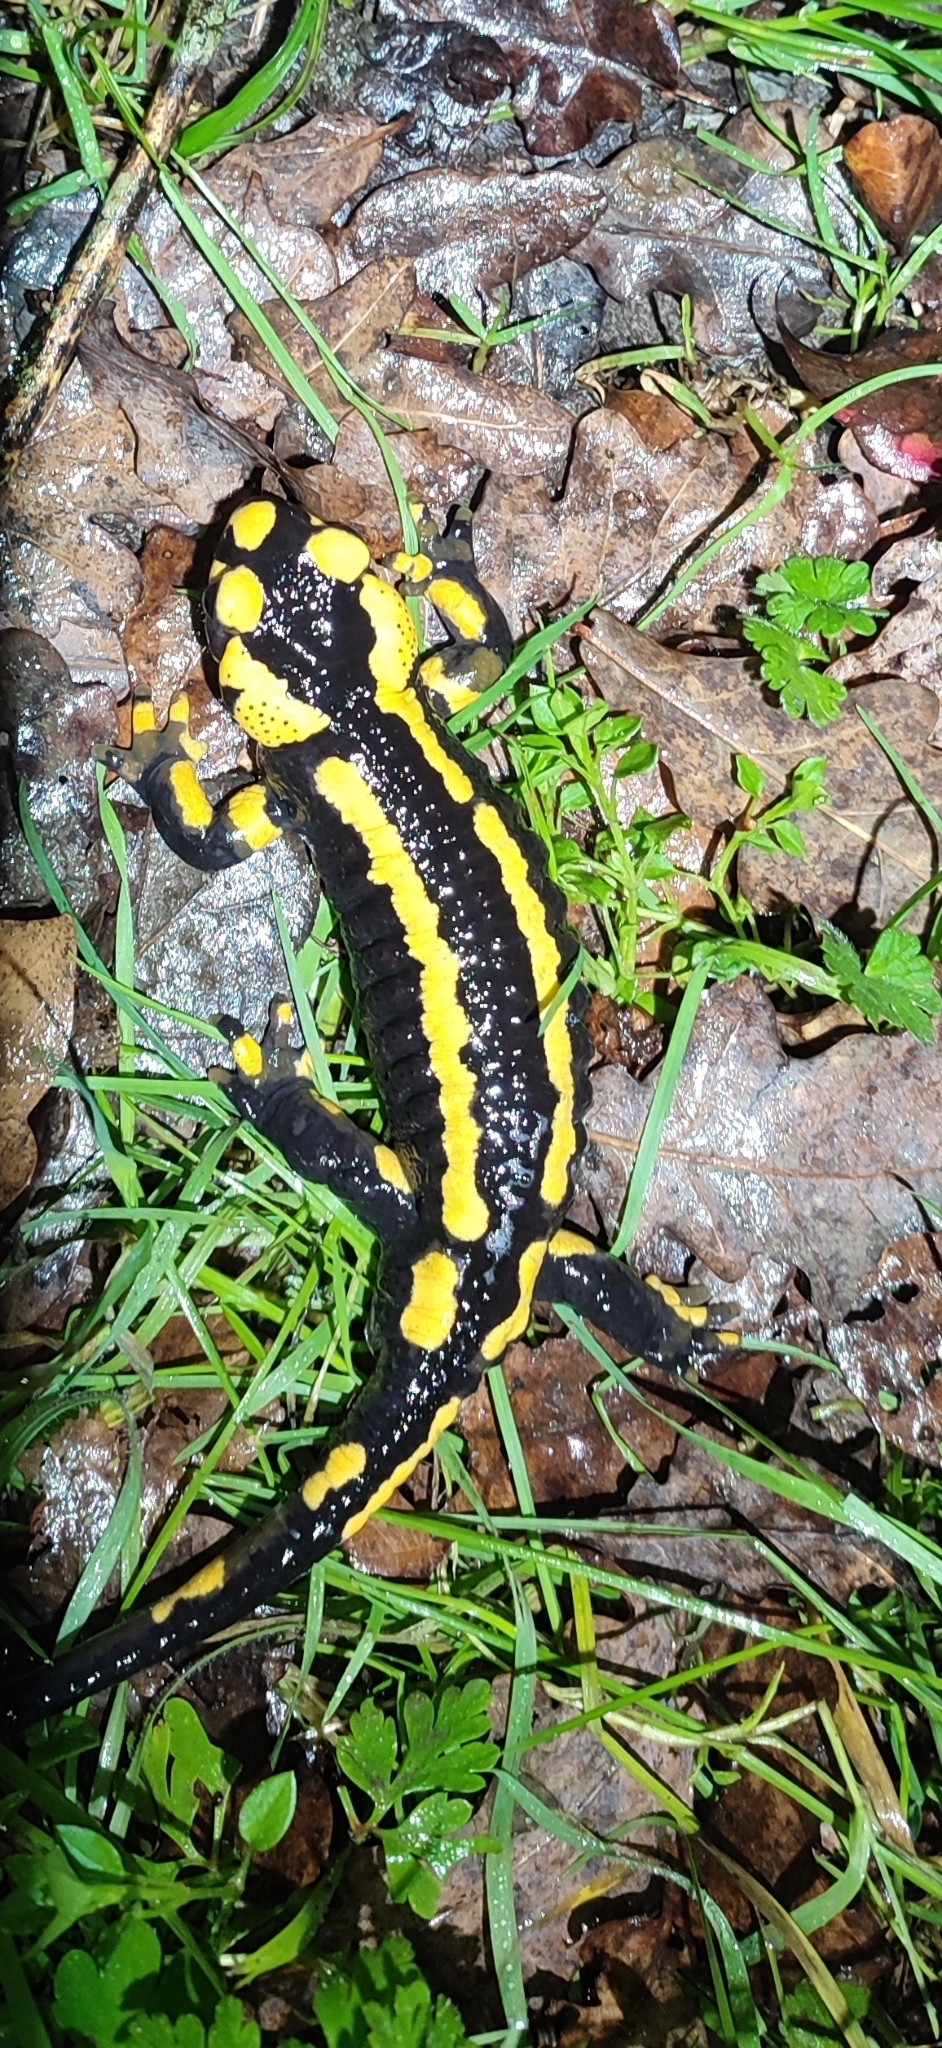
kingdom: Animalia
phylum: Chordata
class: Amphibia
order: Caudata
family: Salamandridae
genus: Salamandra
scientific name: Salamandra salamandra
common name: Fire salamander
